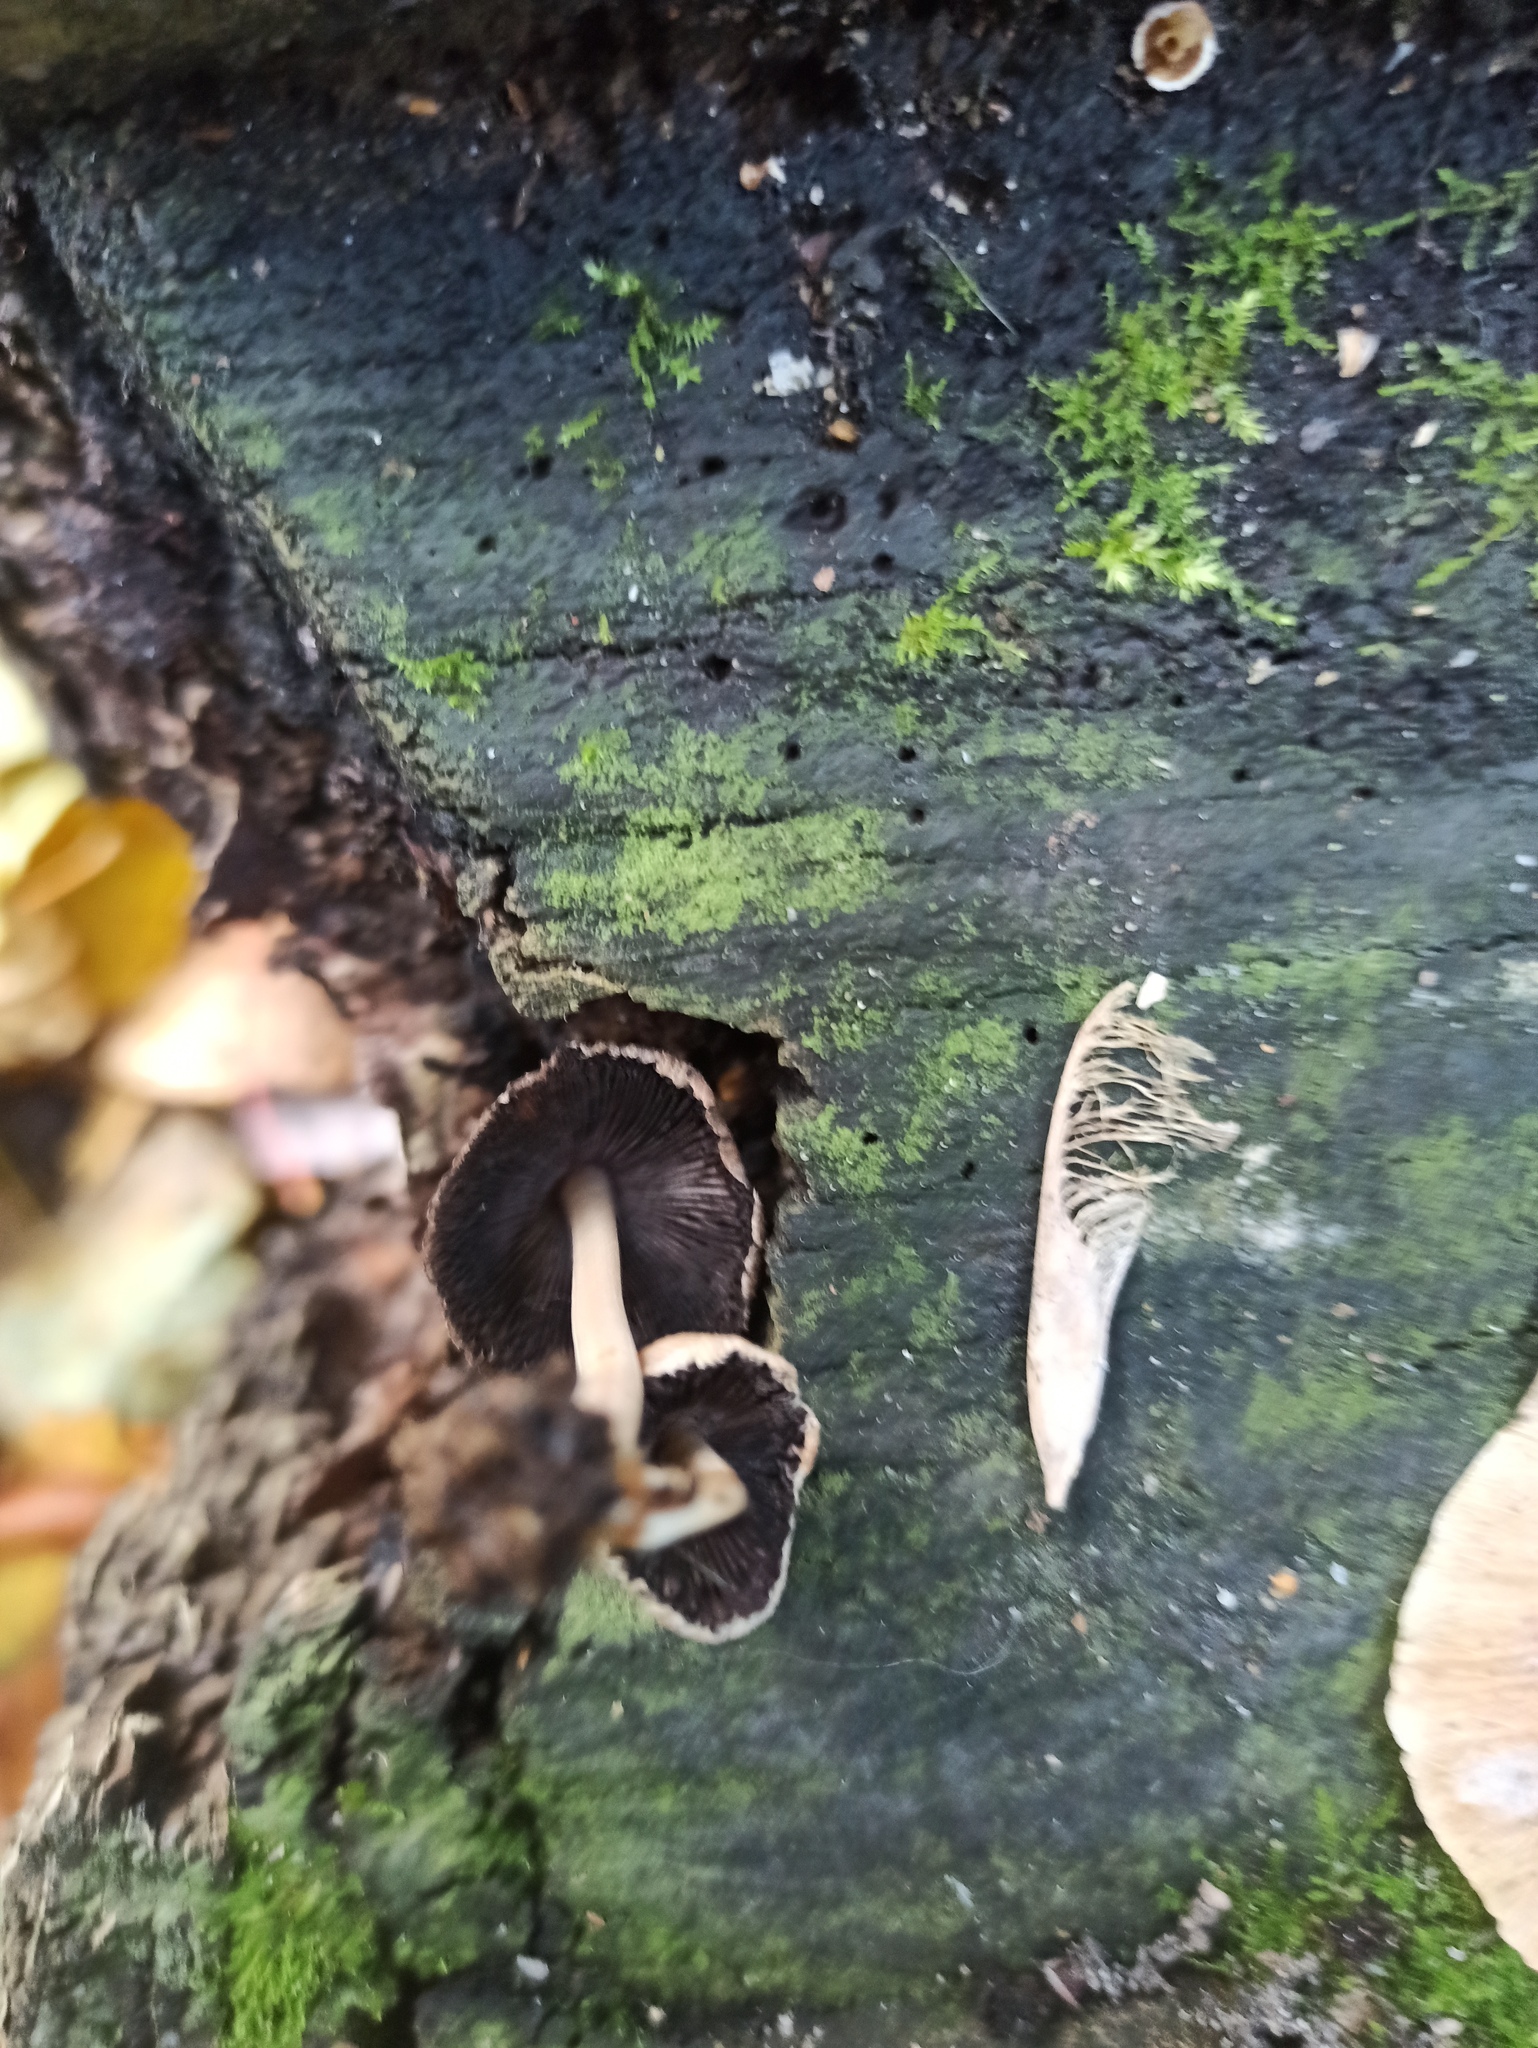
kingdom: Fungi
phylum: Basidiomycota
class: Agaricomycetes
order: Agaricales
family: Psathyrellaceae
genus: Coprinellus
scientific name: Coprinellus micaceus
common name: Glistening ink-cap
